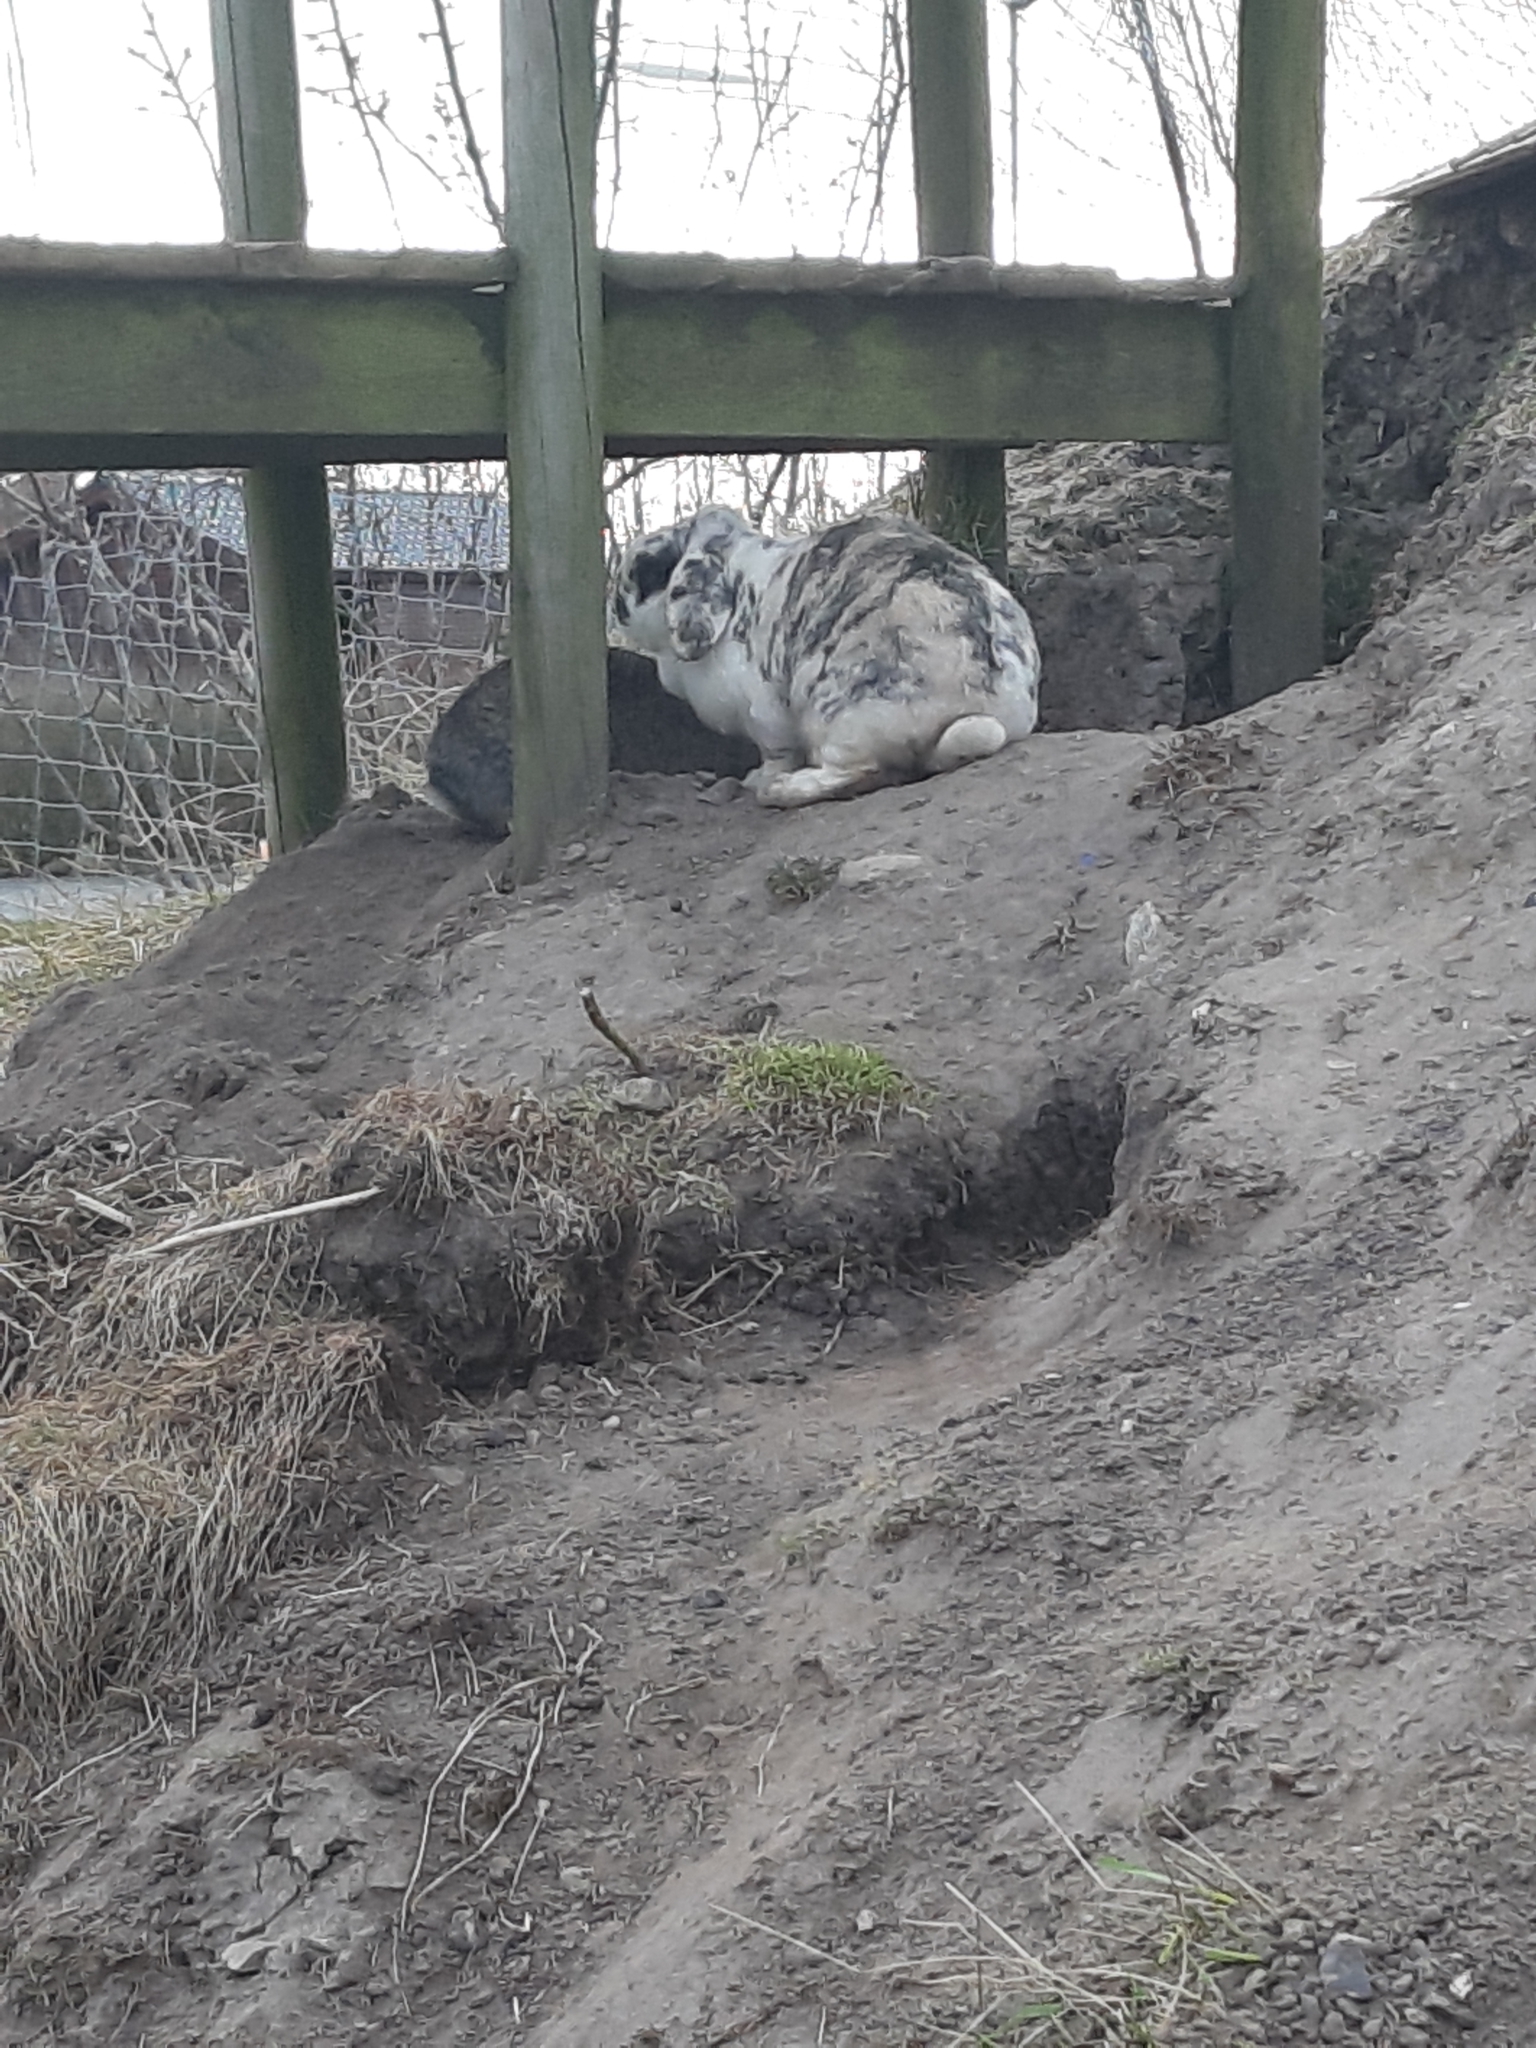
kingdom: Animalia
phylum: Chordata
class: Mammalia
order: Lagomorpha
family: Leporidae
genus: Oryctolagus
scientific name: Oryctolagus cuniculus
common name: European rabbit
